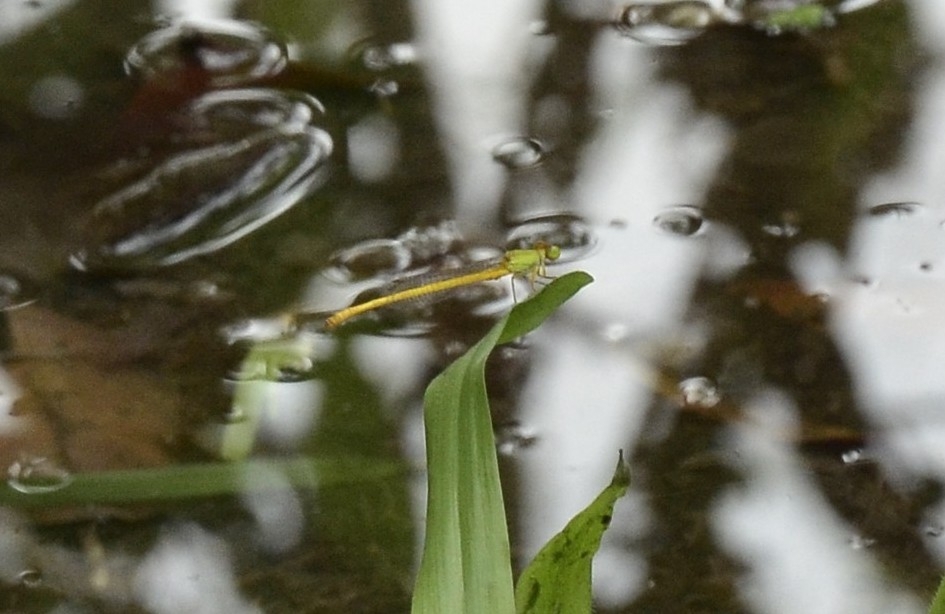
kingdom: Animalia
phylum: Arthropoda
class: Insecta
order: Odonata
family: Coenagrionidae
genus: Ceriagrion
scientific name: Ceriagrion coromandelianum
